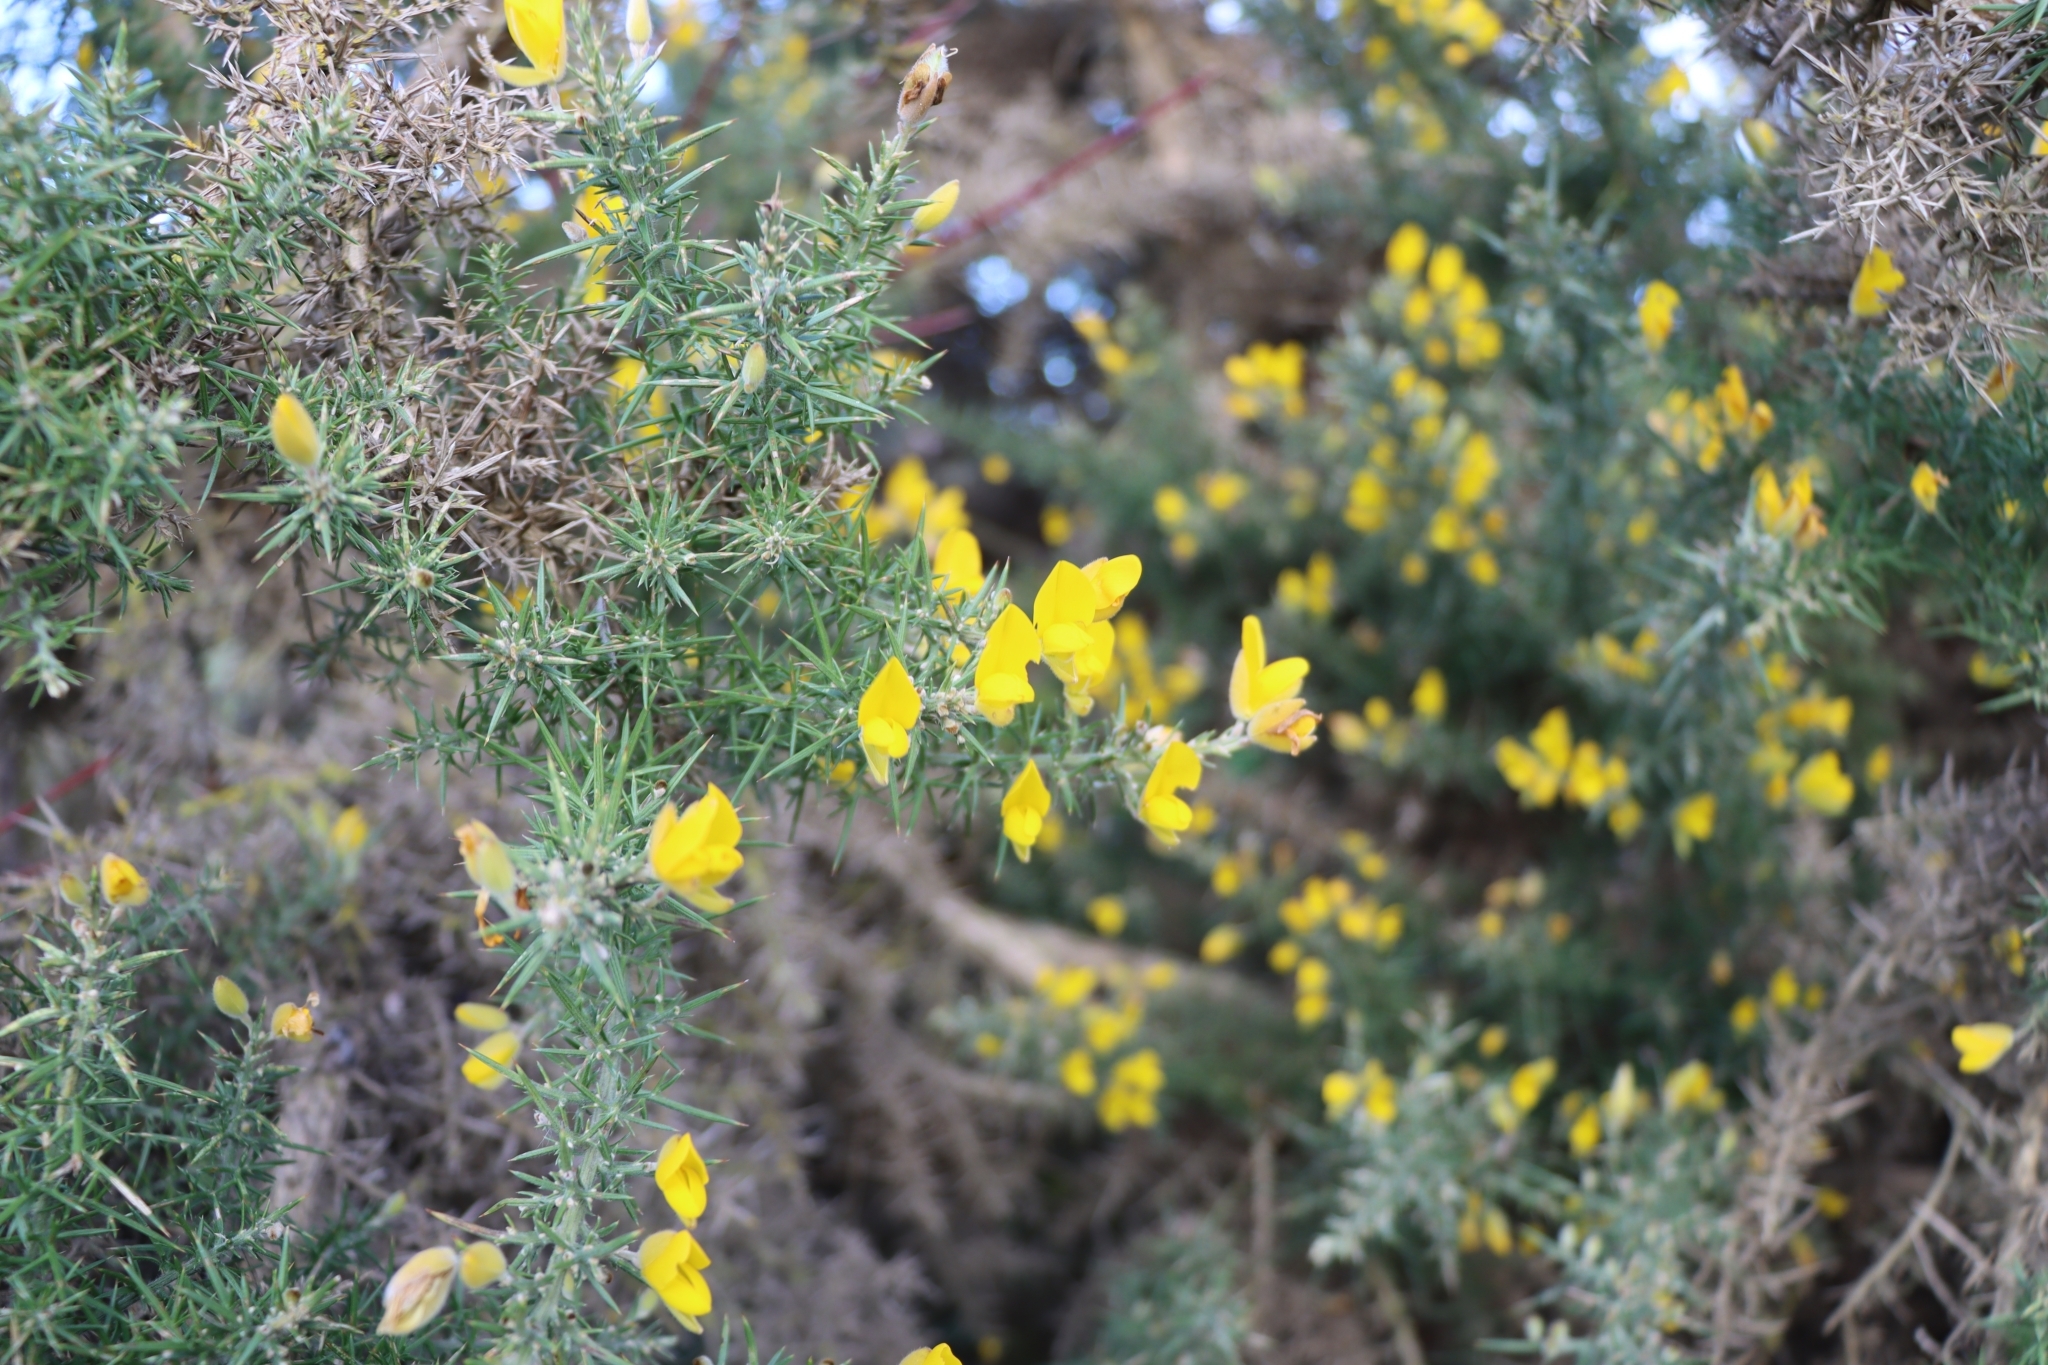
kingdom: Plantae
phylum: Tracheophyta
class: Magnoliopsida
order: Fabales
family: Fabaceae
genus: Ulex
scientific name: Ulex europaeus
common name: Common gorse
